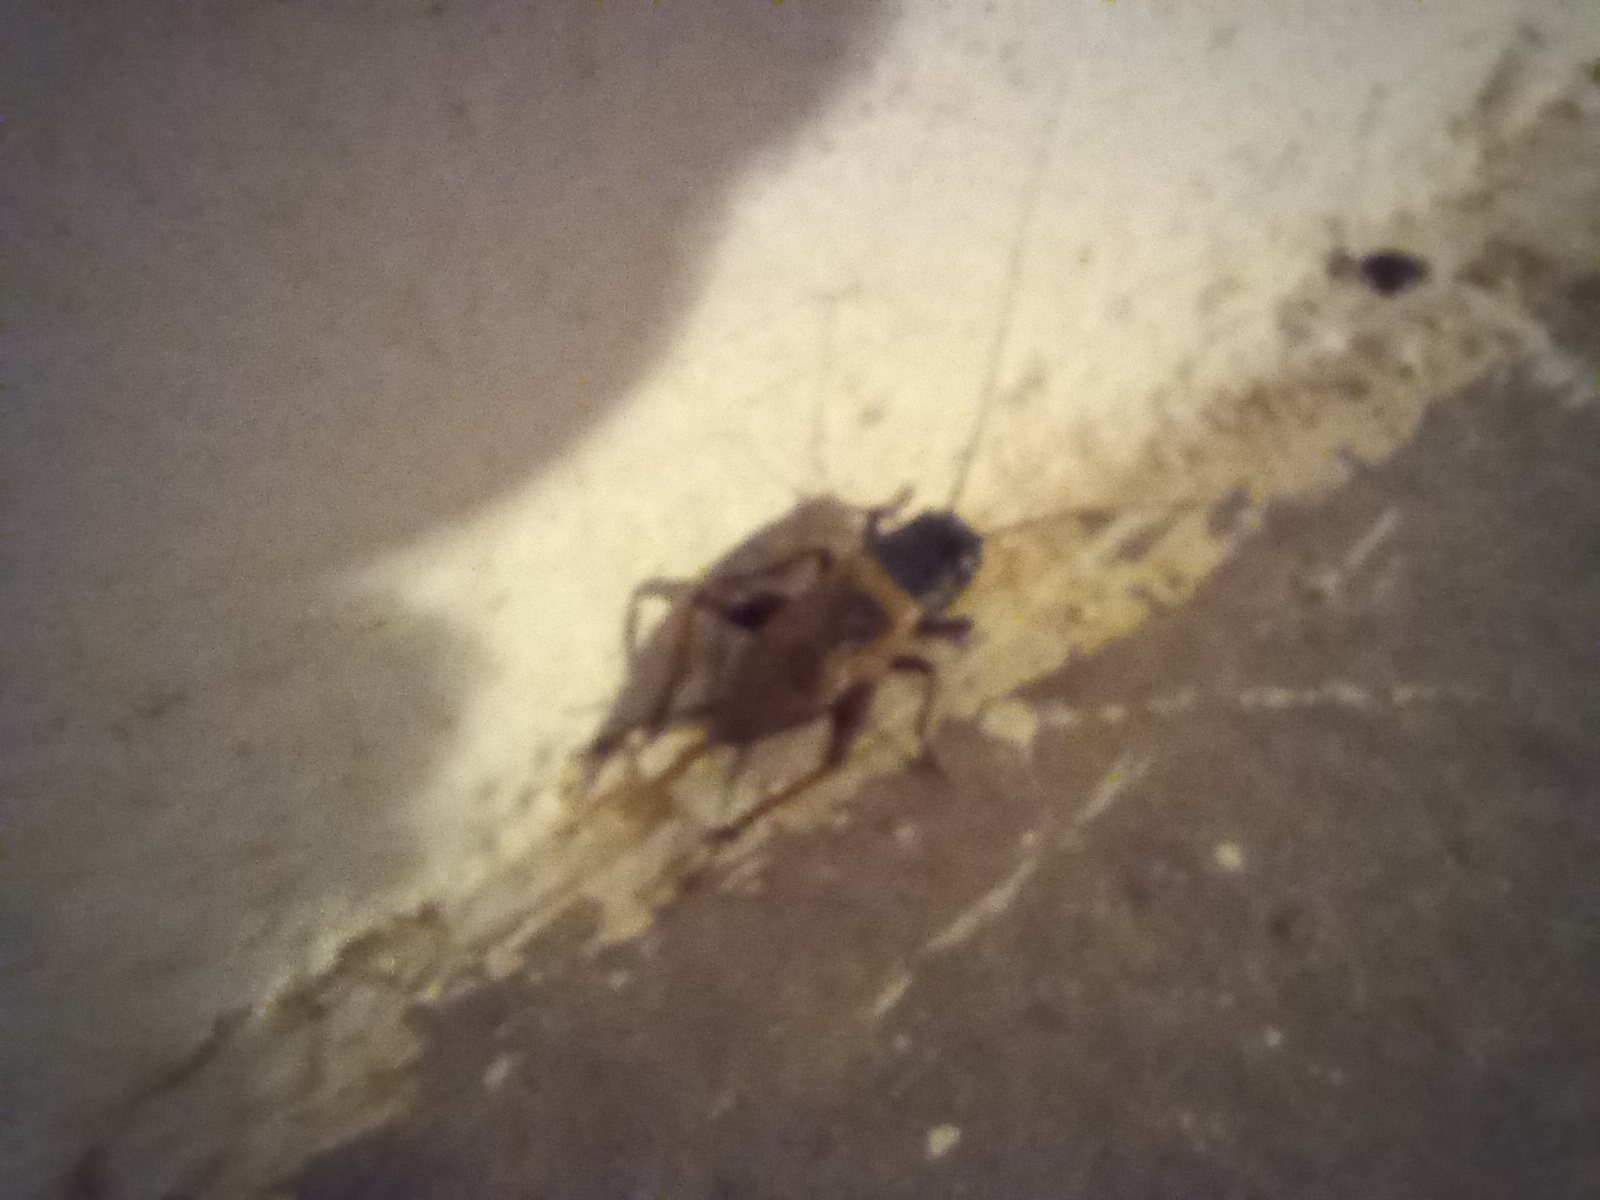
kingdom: Animalia
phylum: Arthropoda
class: Insecta
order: Orthoptera
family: Gryllidae
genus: Gryllus
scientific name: Gryllus bimaculatus
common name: Two-spotted cricket
